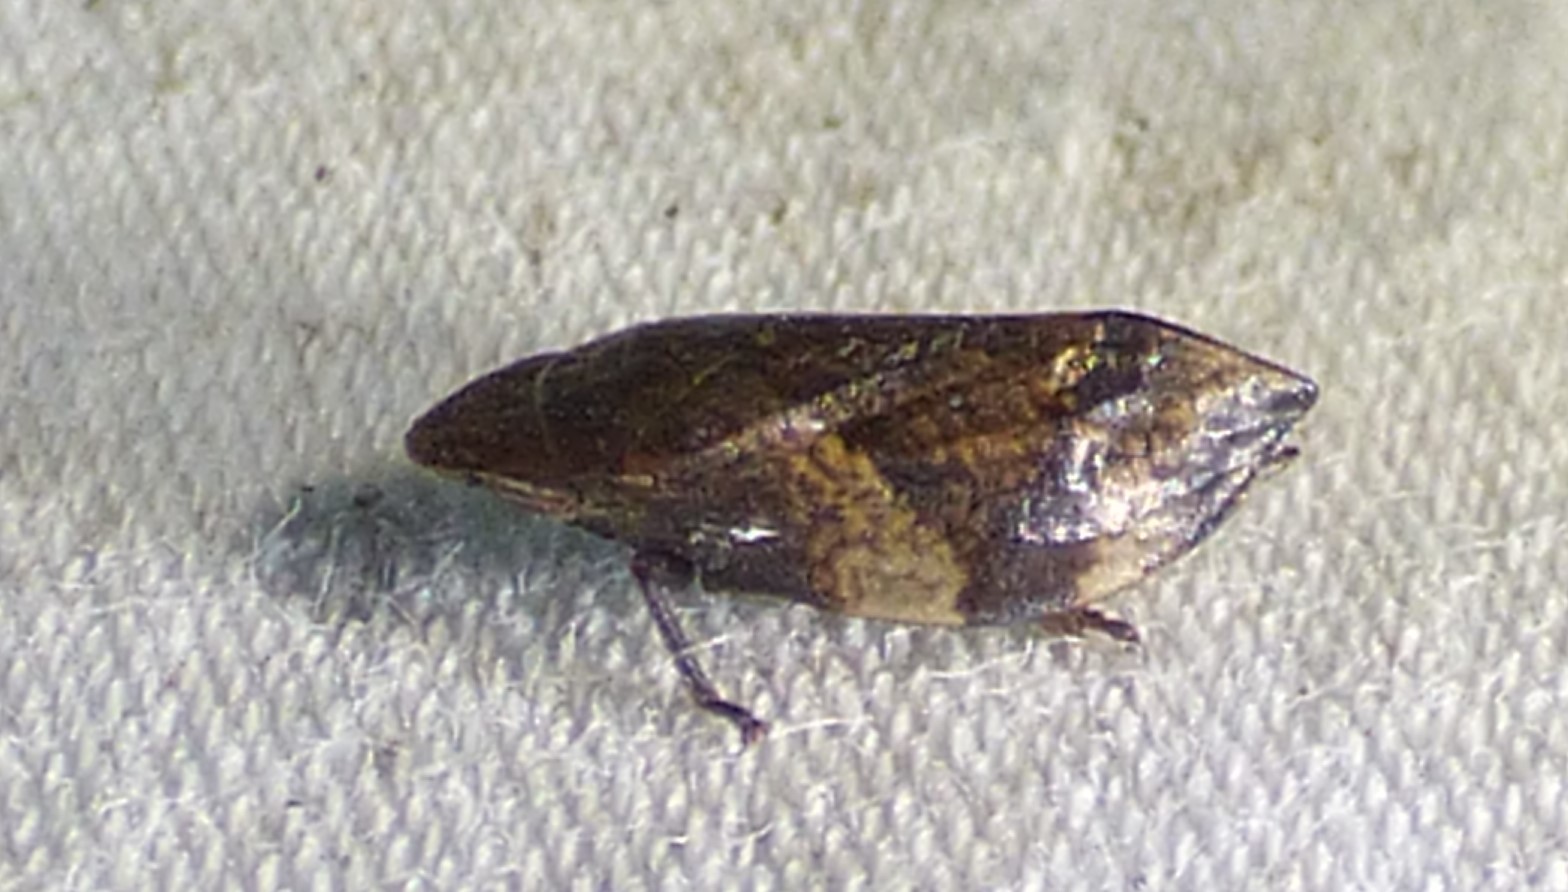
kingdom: Animalia
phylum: Arthropoda
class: Insecta
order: Hemiptera
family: Aphrophoridae
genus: Lepyronia
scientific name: Lepyronia quadrangularis
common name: Diamond-backed spittlebug
